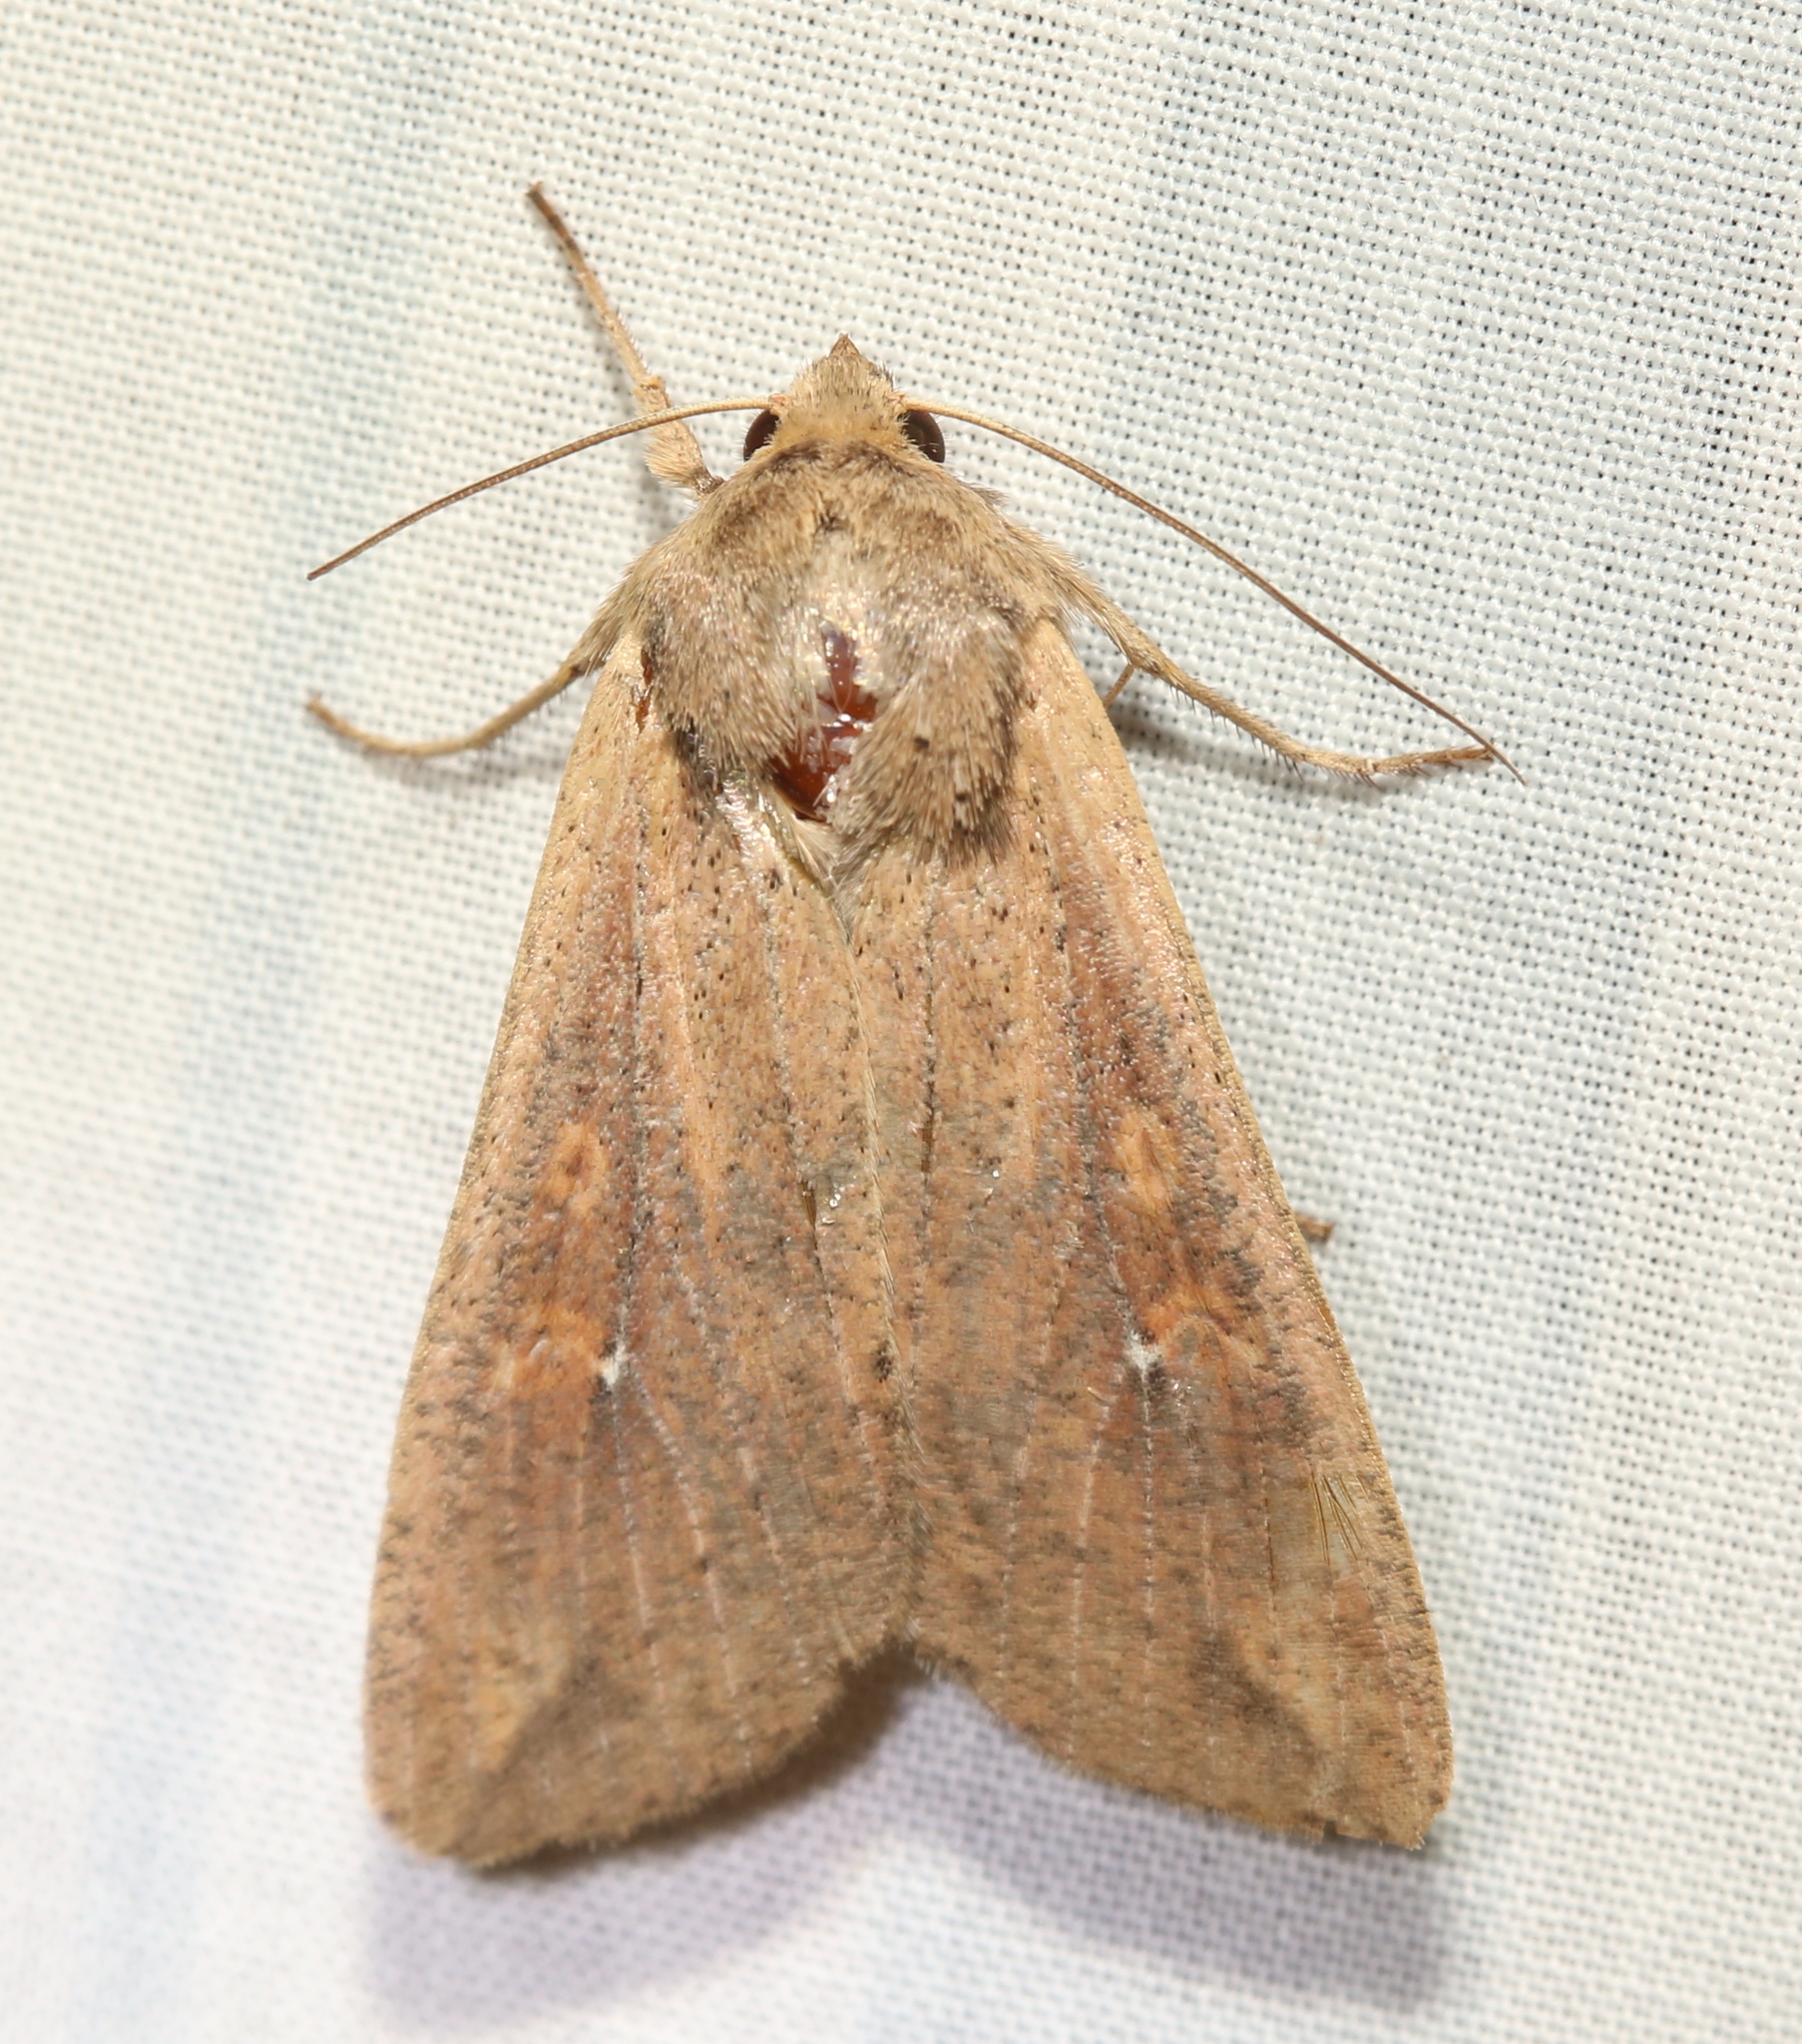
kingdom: Animalia
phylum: Arthropoda
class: Insecta
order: Lepidoptera
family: Noctuidae
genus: Mythimna
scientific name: Mythimna unipuncta
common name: White-speck
